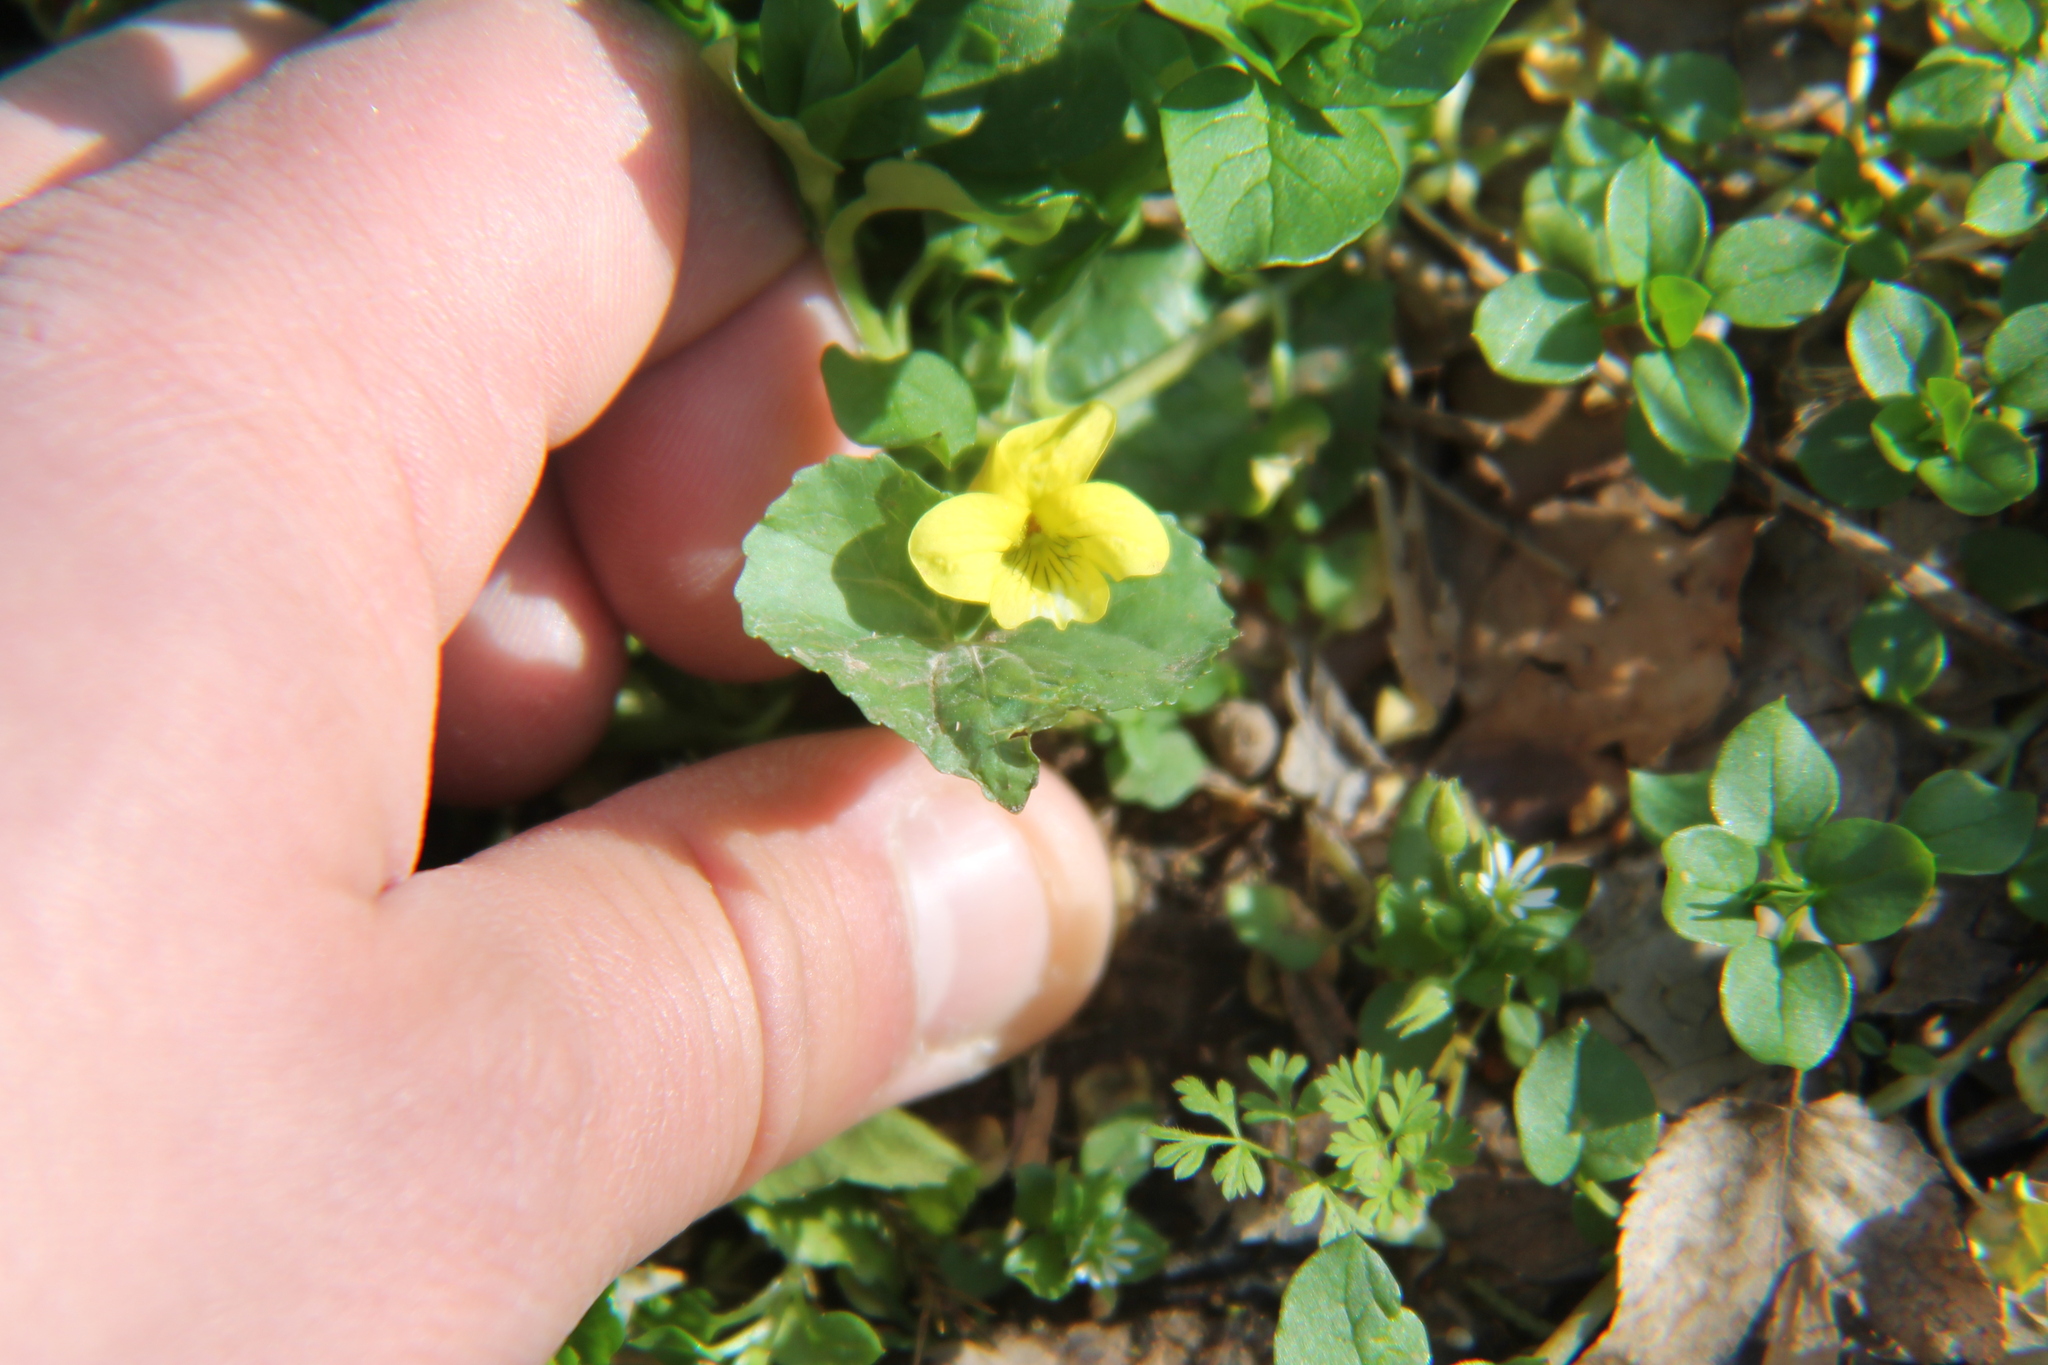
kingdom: Plantae
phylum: Tracheophyta
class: Magnoliopsida
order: Malpighiales
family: Violaceae
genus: Viola
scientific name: Viola eriocarpa
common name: Smooth yellow violet
